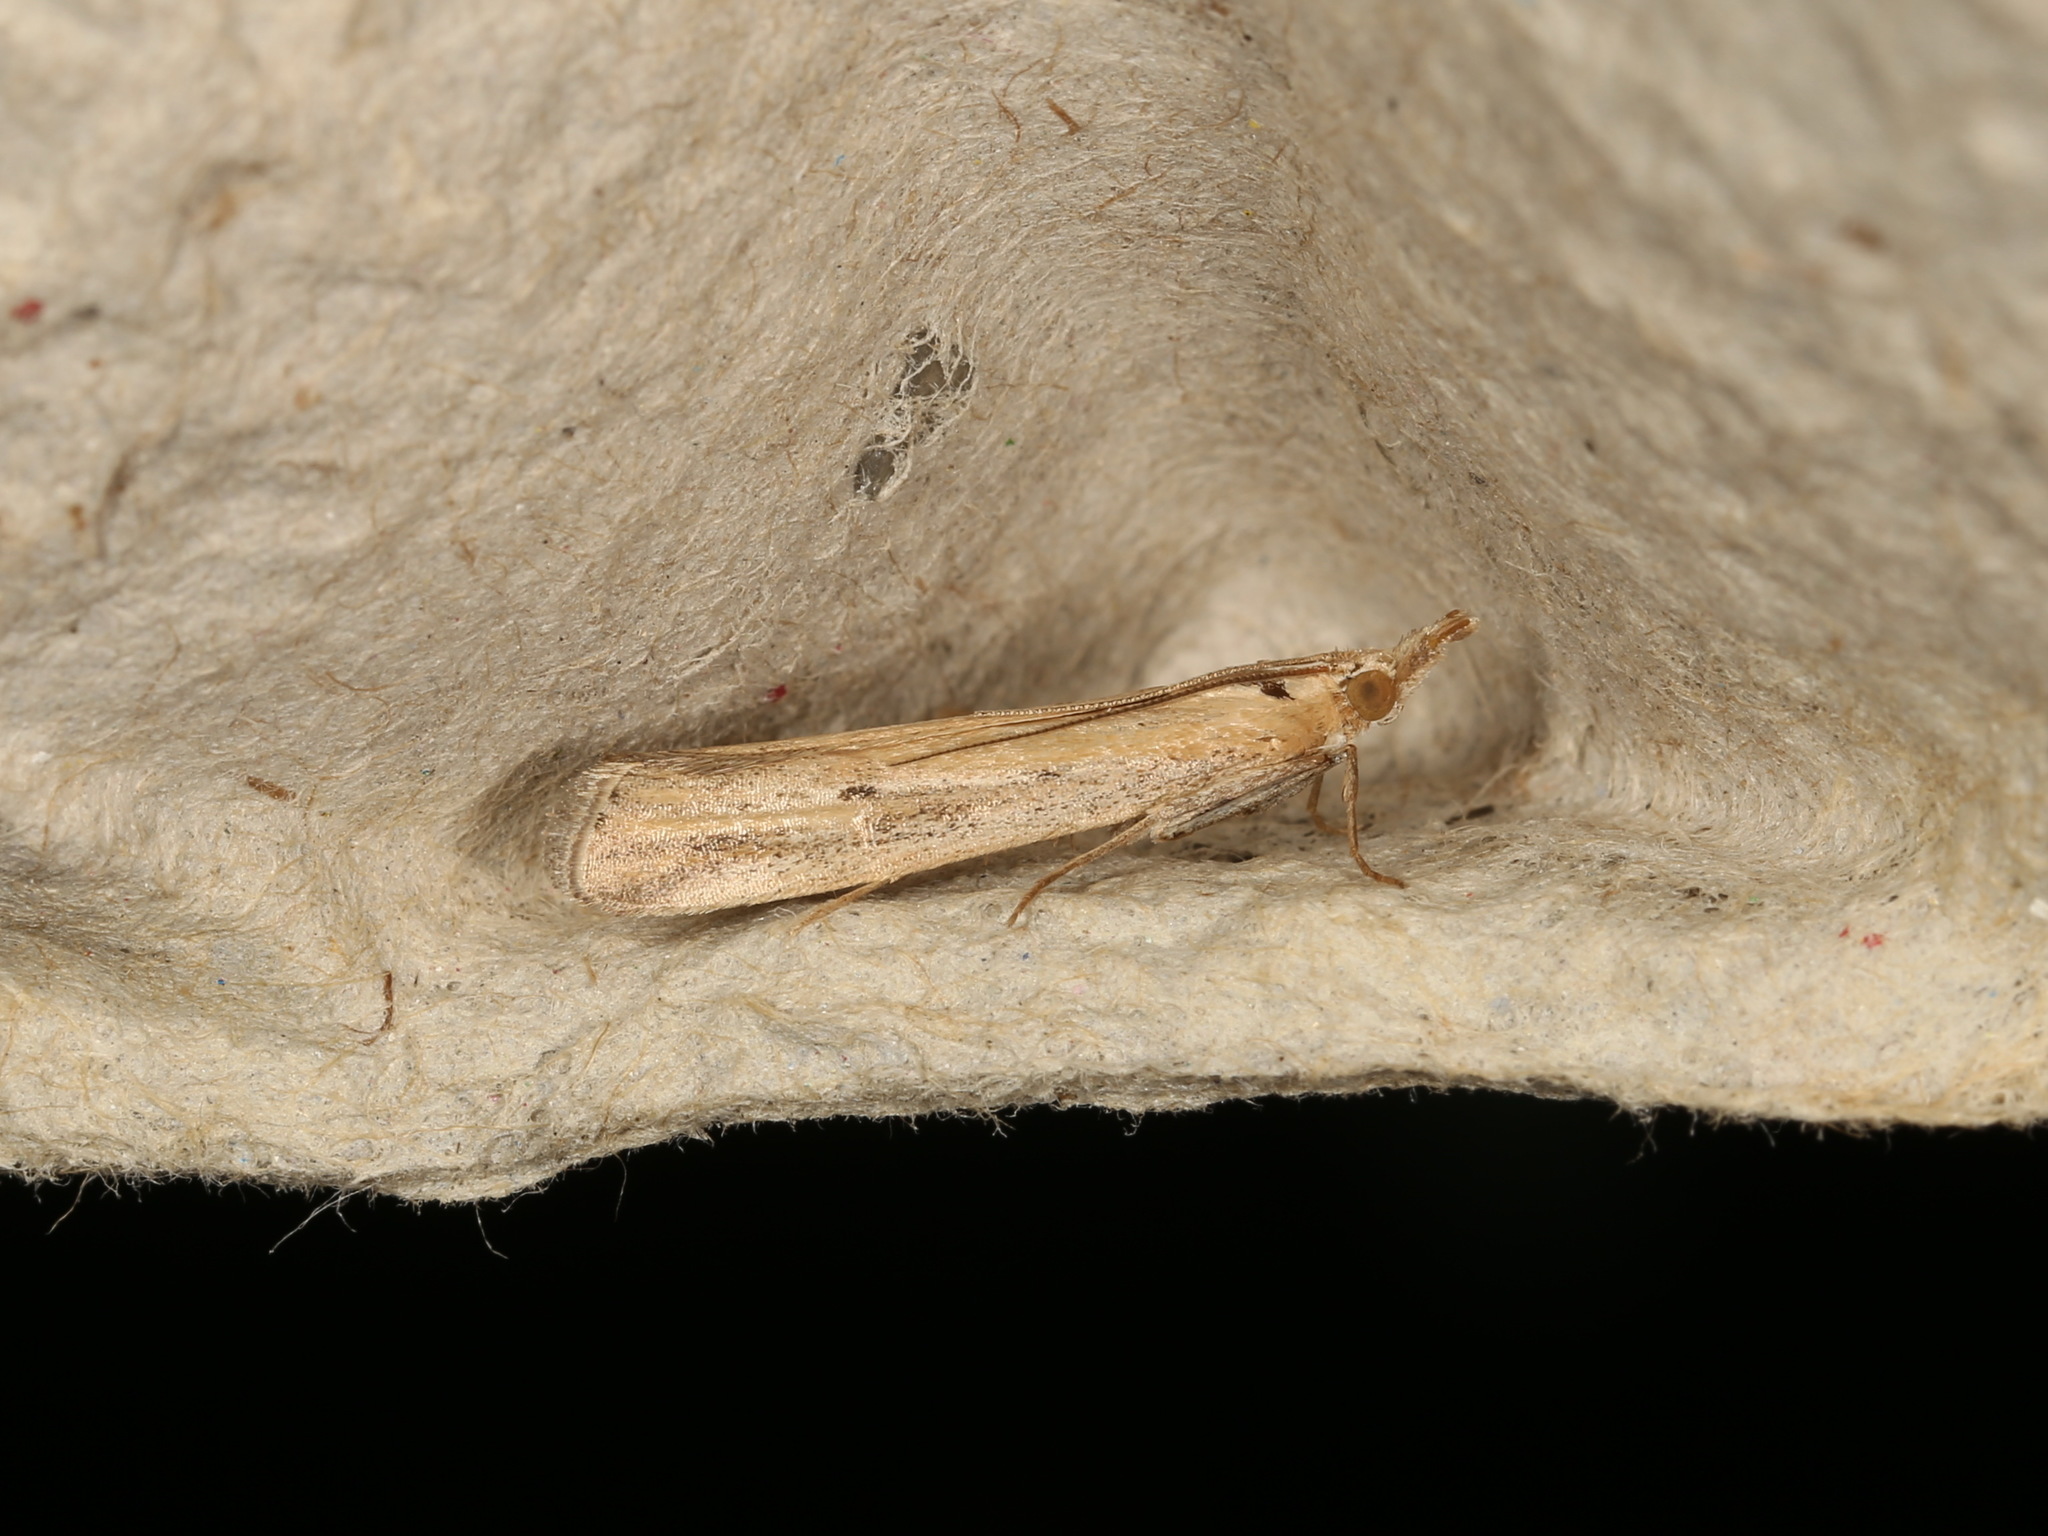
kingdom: Animalia
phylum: Arthropoda
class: Insecta
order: Lepidoptera
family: Pyralidae
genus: Faveria
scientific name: Faveria tritalis
